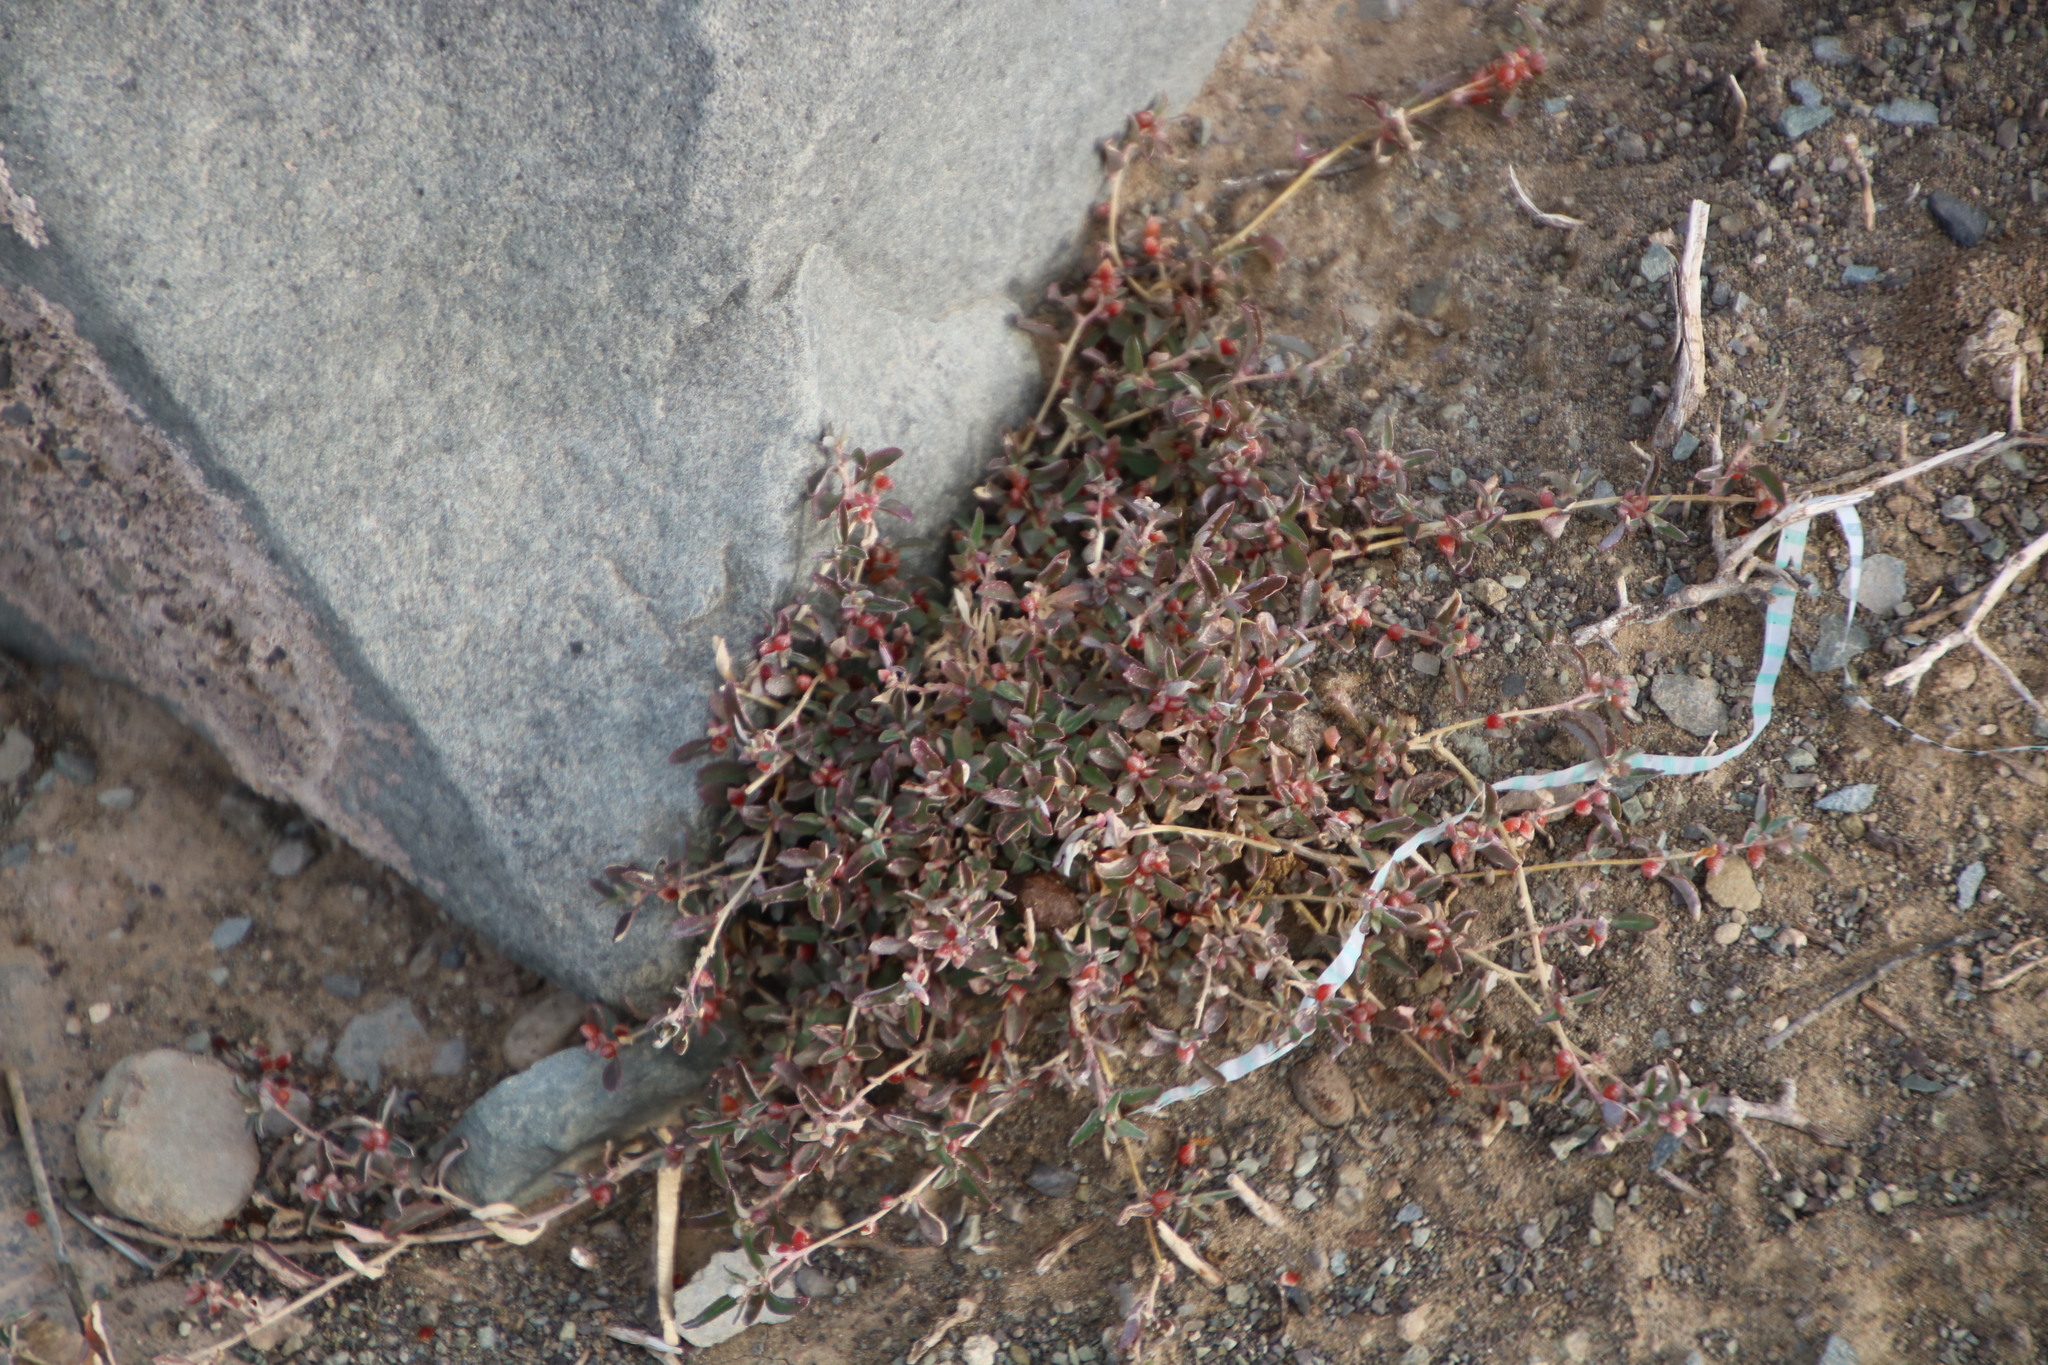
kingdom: Plantae
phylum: Tracheophyta
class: Magnoliopsida
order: Caryophyllales
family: Amaranthaceae
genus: Atriplex
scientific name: Atriplex semibaccata
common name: Australian saltbush
